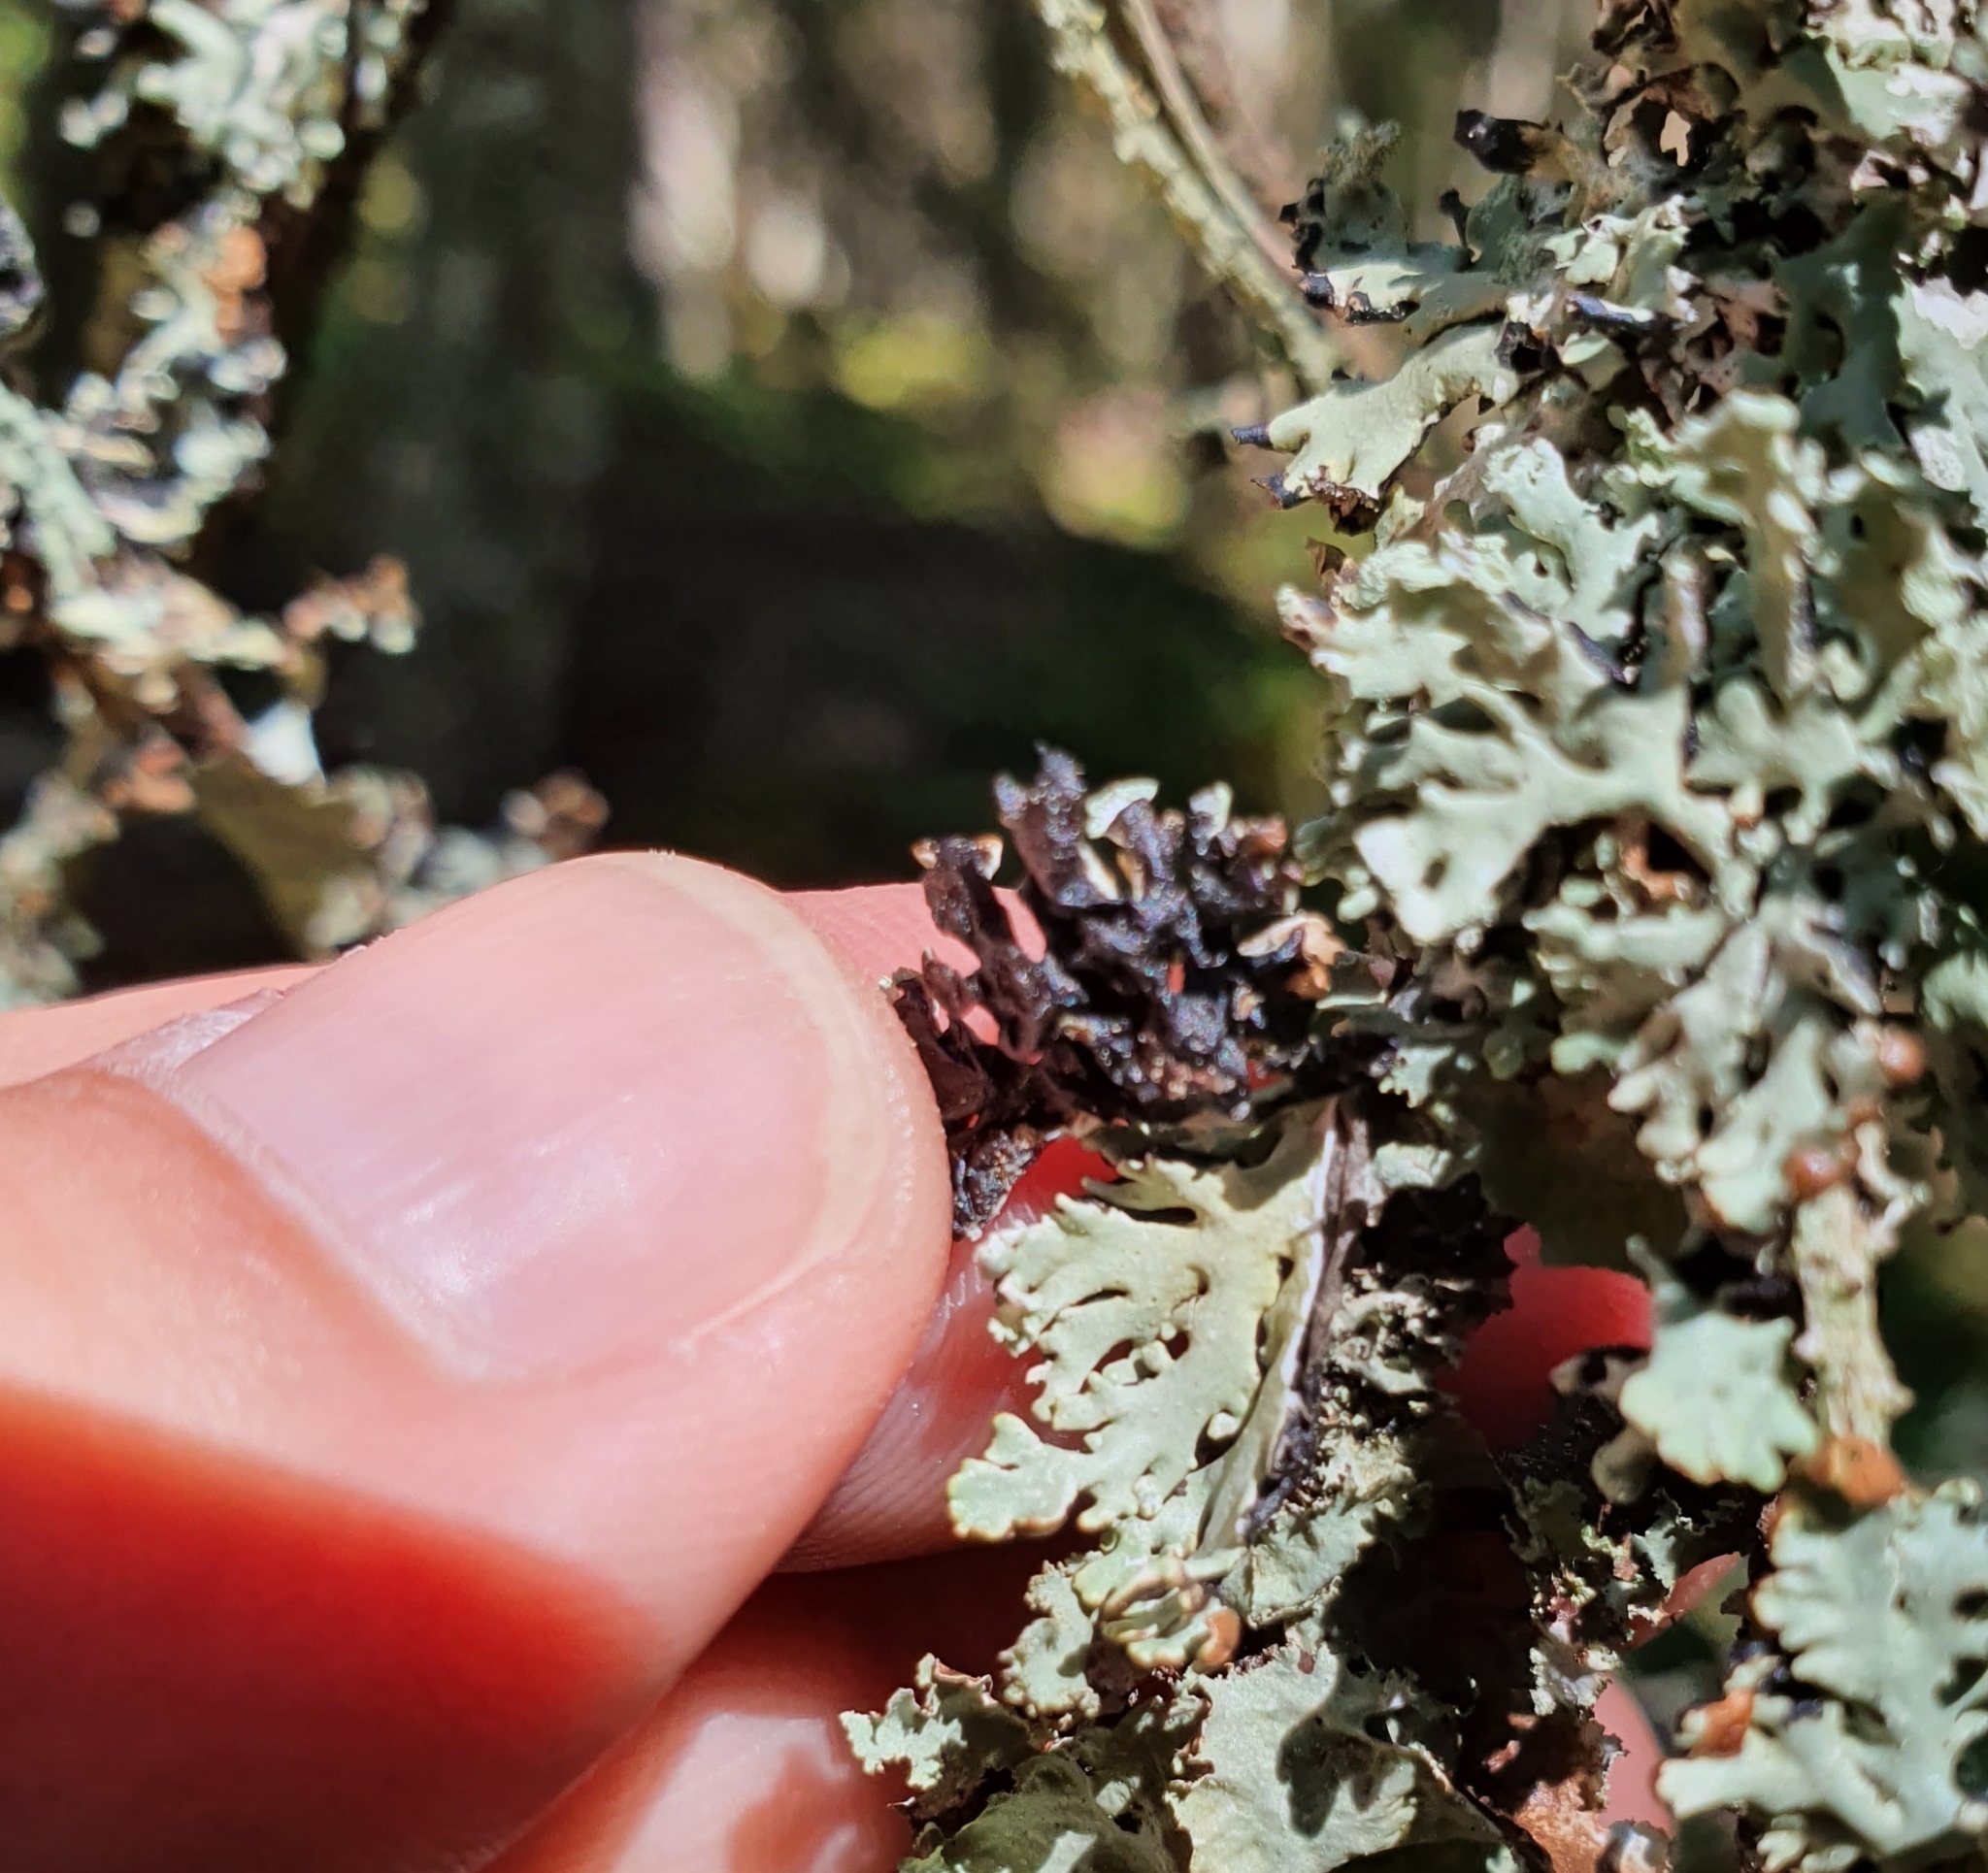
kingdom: Fungi
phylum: Ascomycota
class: Lecanoromycetes
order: Lecanorales
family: Parmeliaceae
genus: Hypogymnia
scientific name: Hypogymnia physodes
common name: Dark crottle
